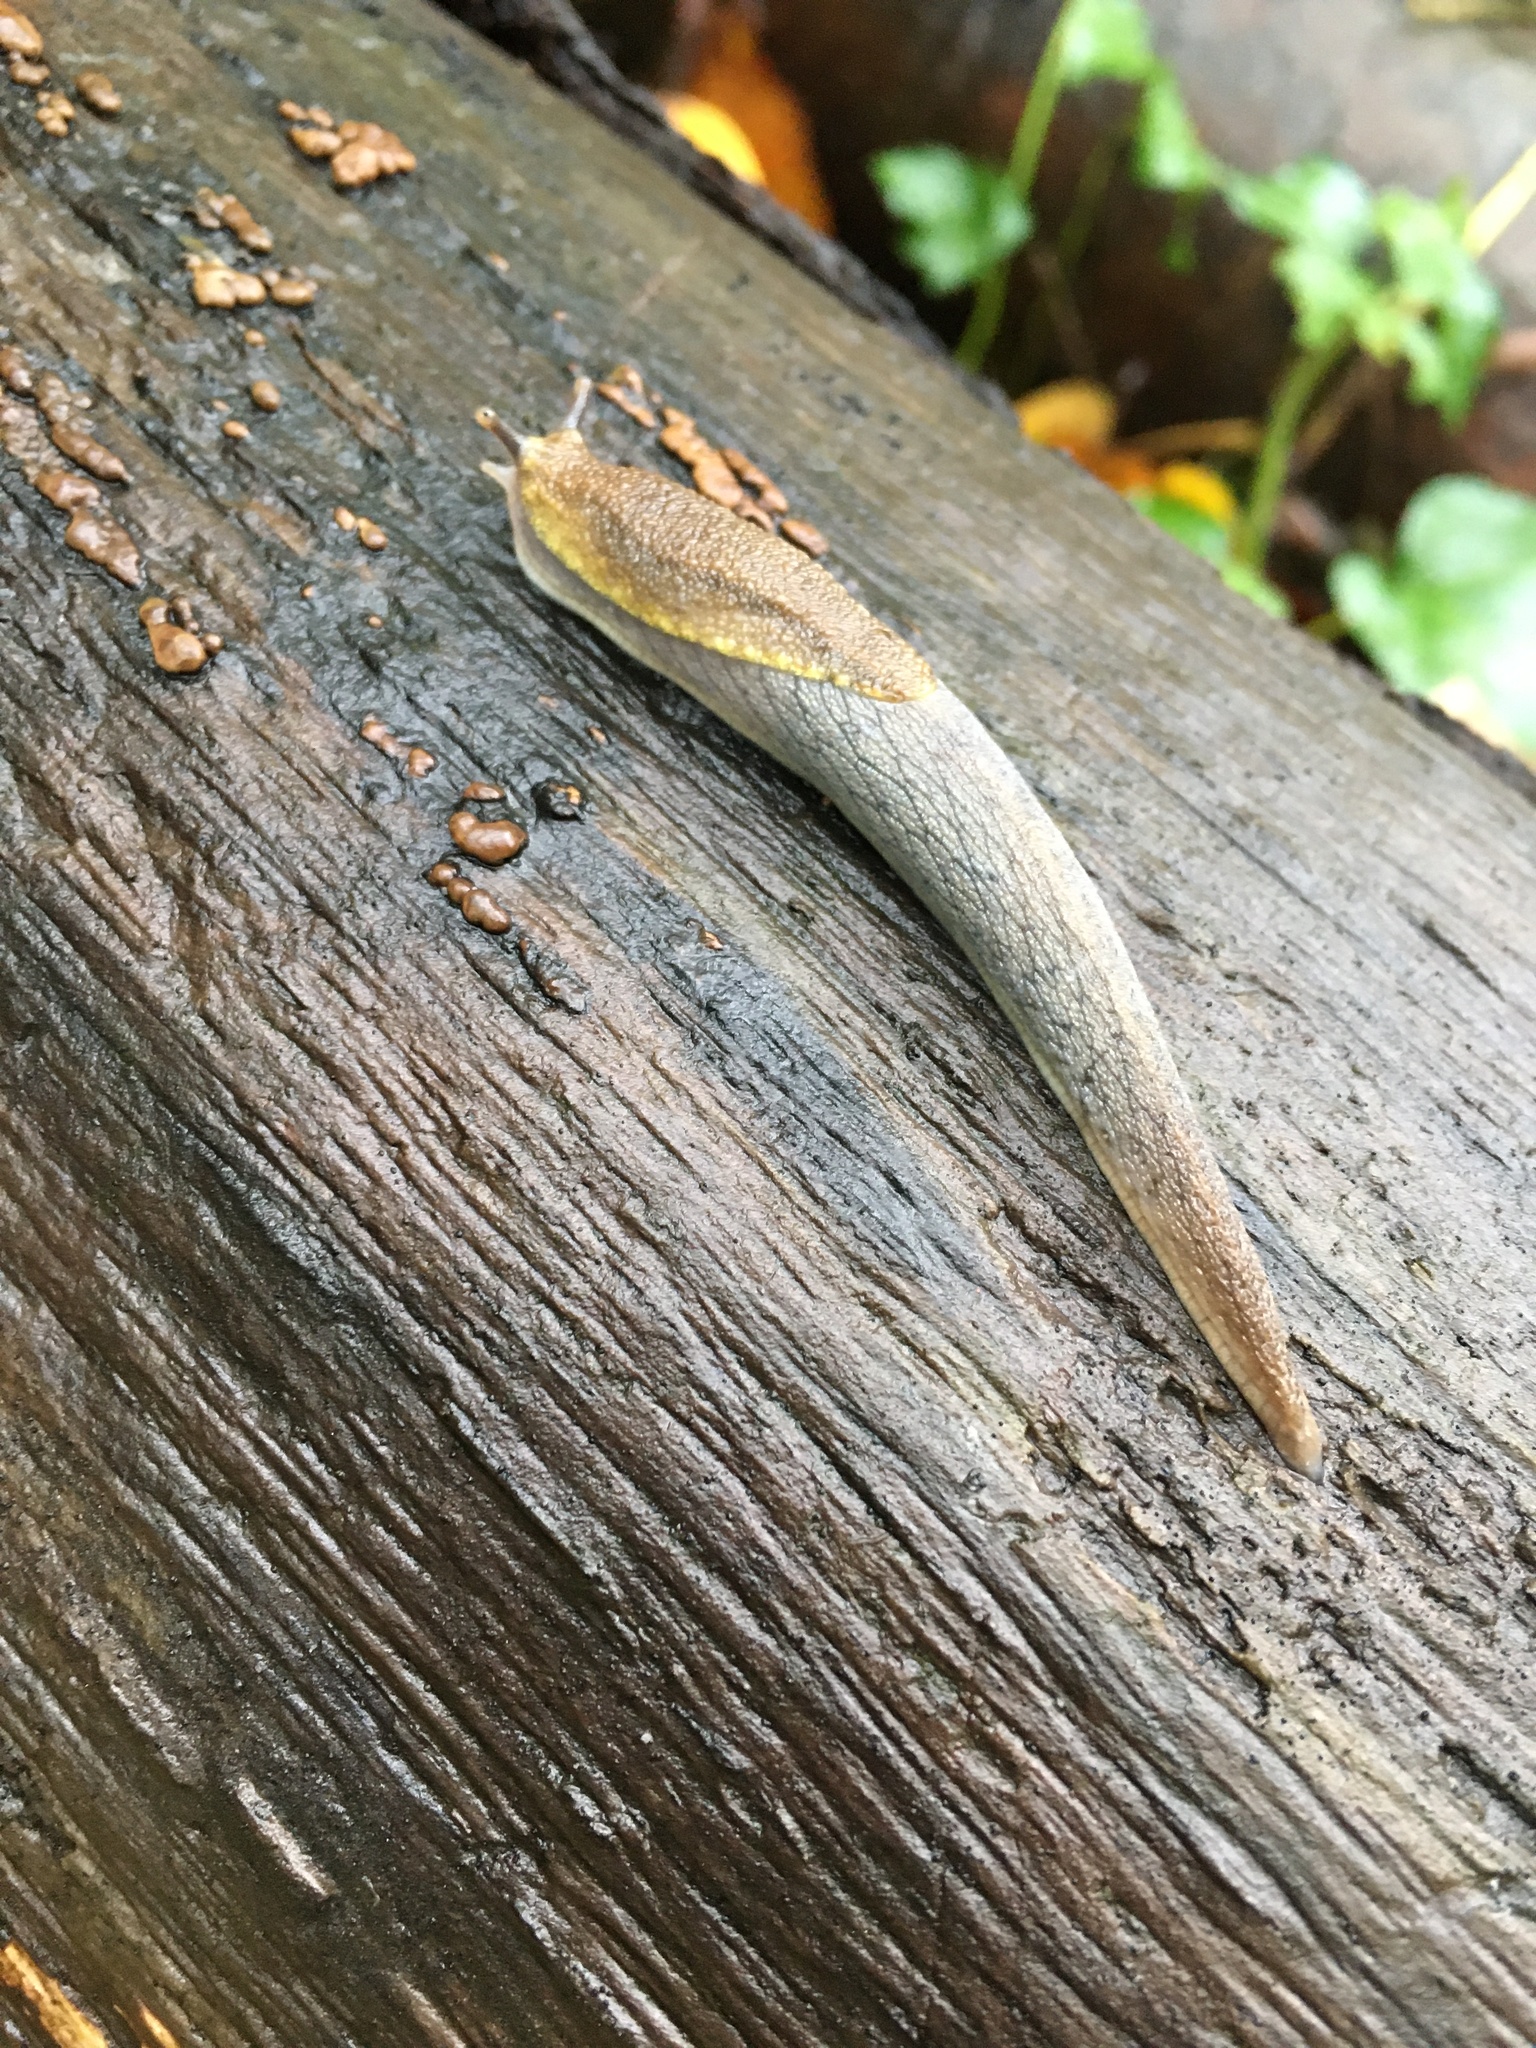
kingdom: Animalia
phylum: Mollusca
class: Gastropoda
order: Stylommatophora
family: Ariolimacidae
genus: Prophysaon
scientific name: Prophysaon foliolatum
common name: Yellow-bordered taildropper
